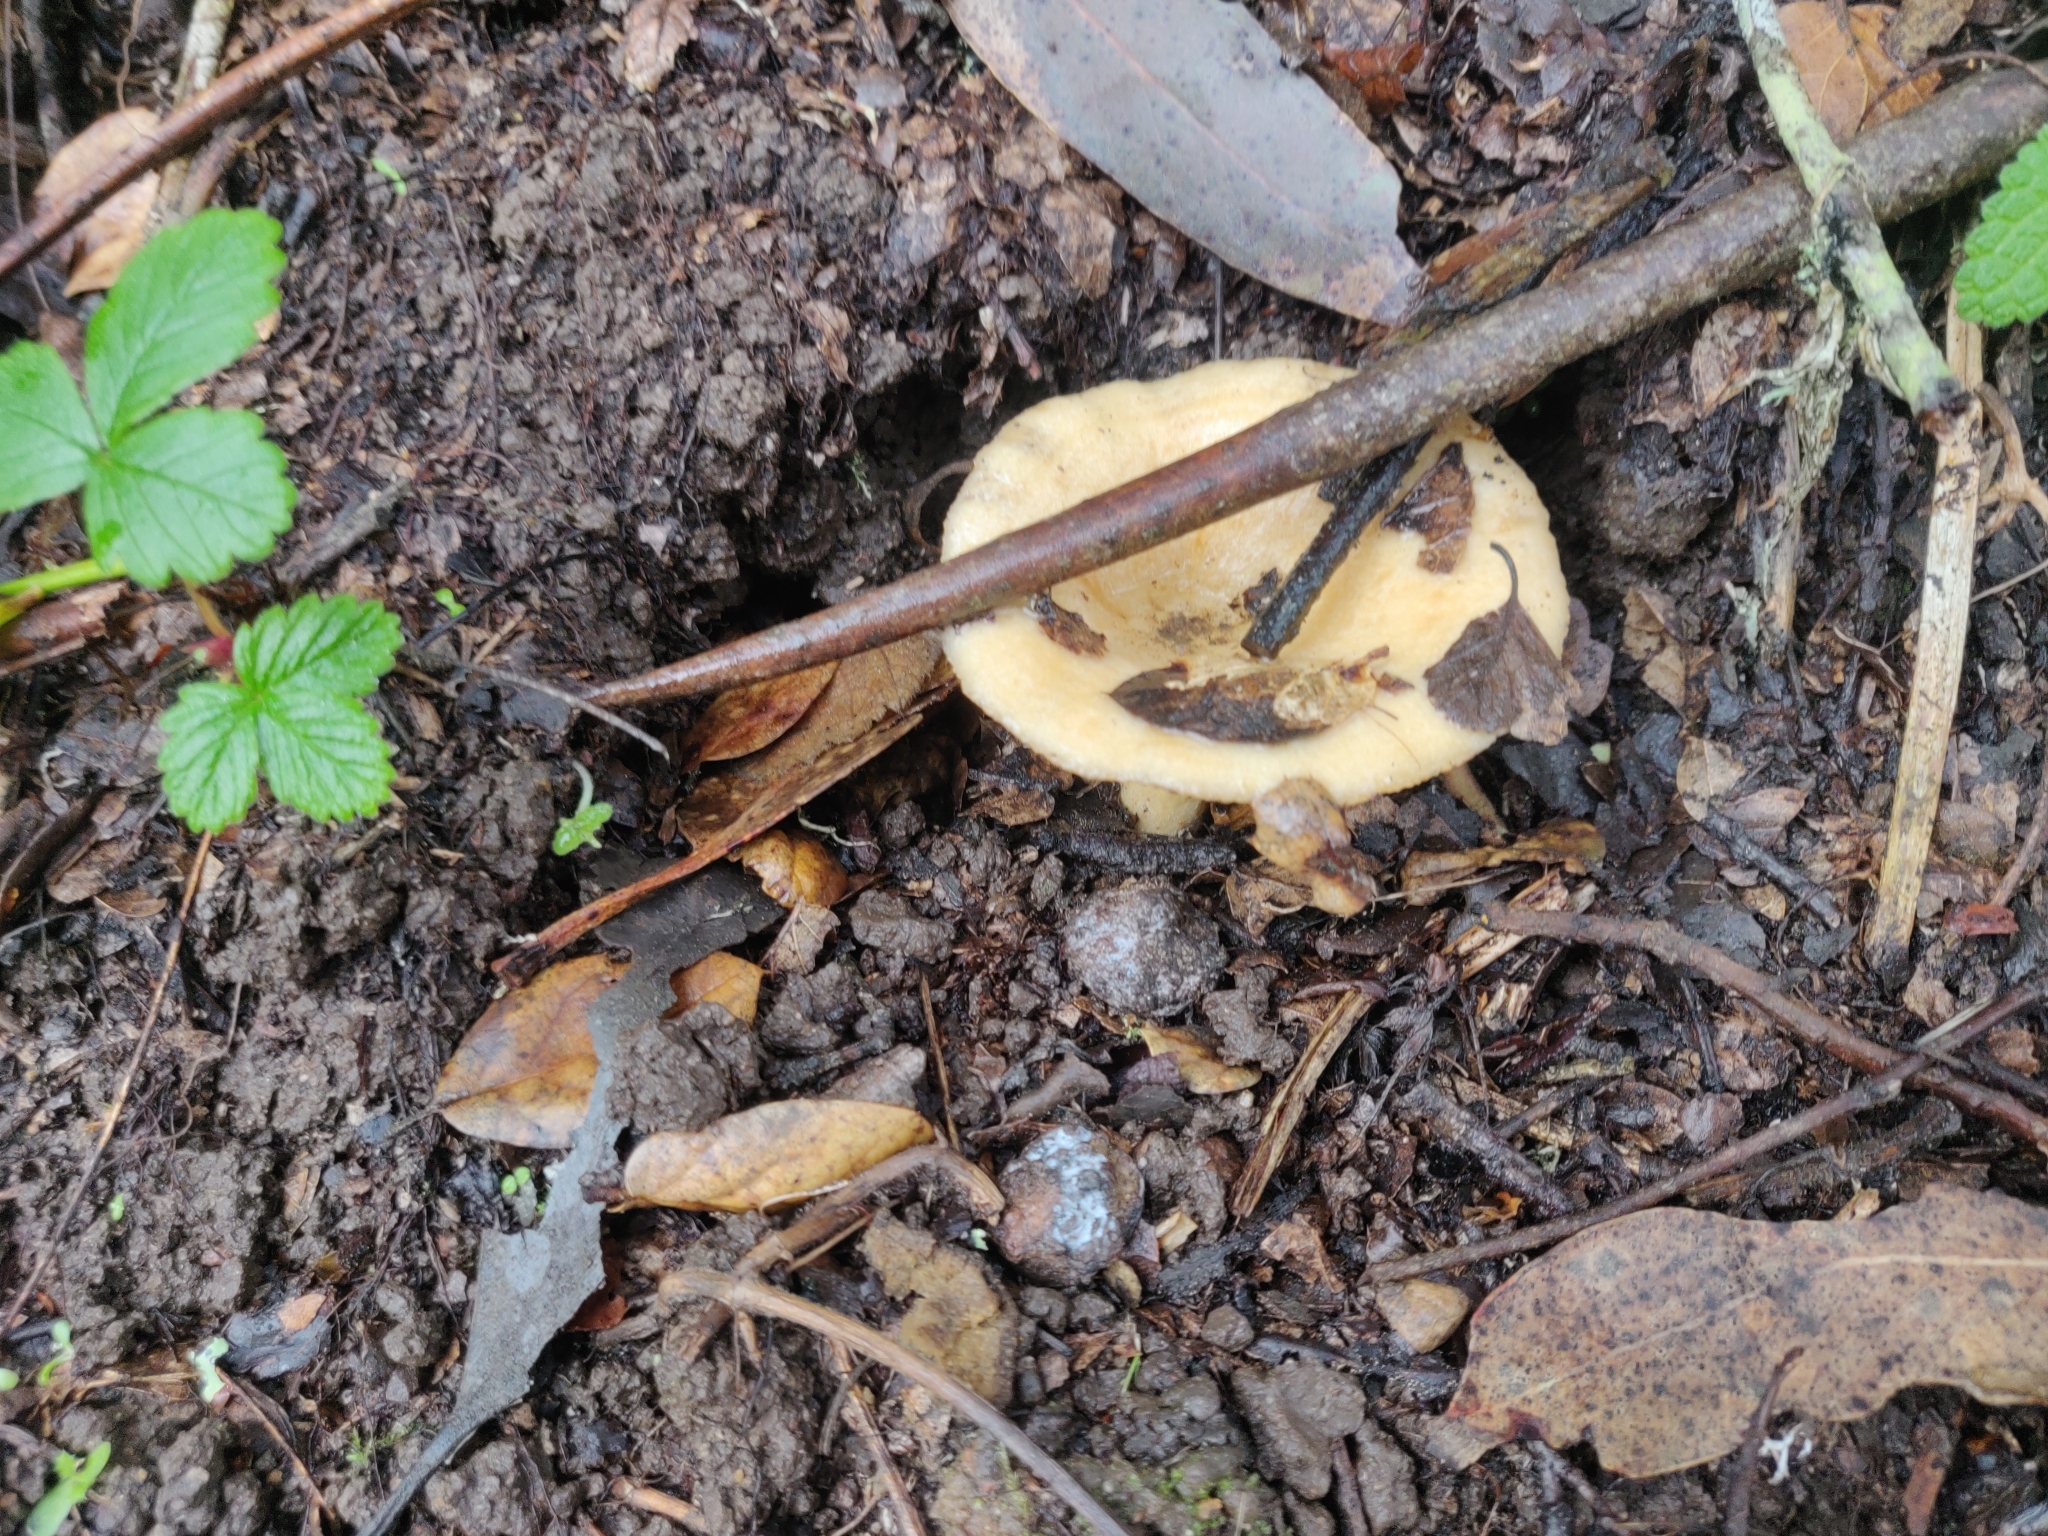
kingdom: Fungi
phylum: Basidiomycota
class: Agaricomycetes
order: Russulales
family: Russulaceae
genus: Lactarius
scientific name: Lactarius alnicola
